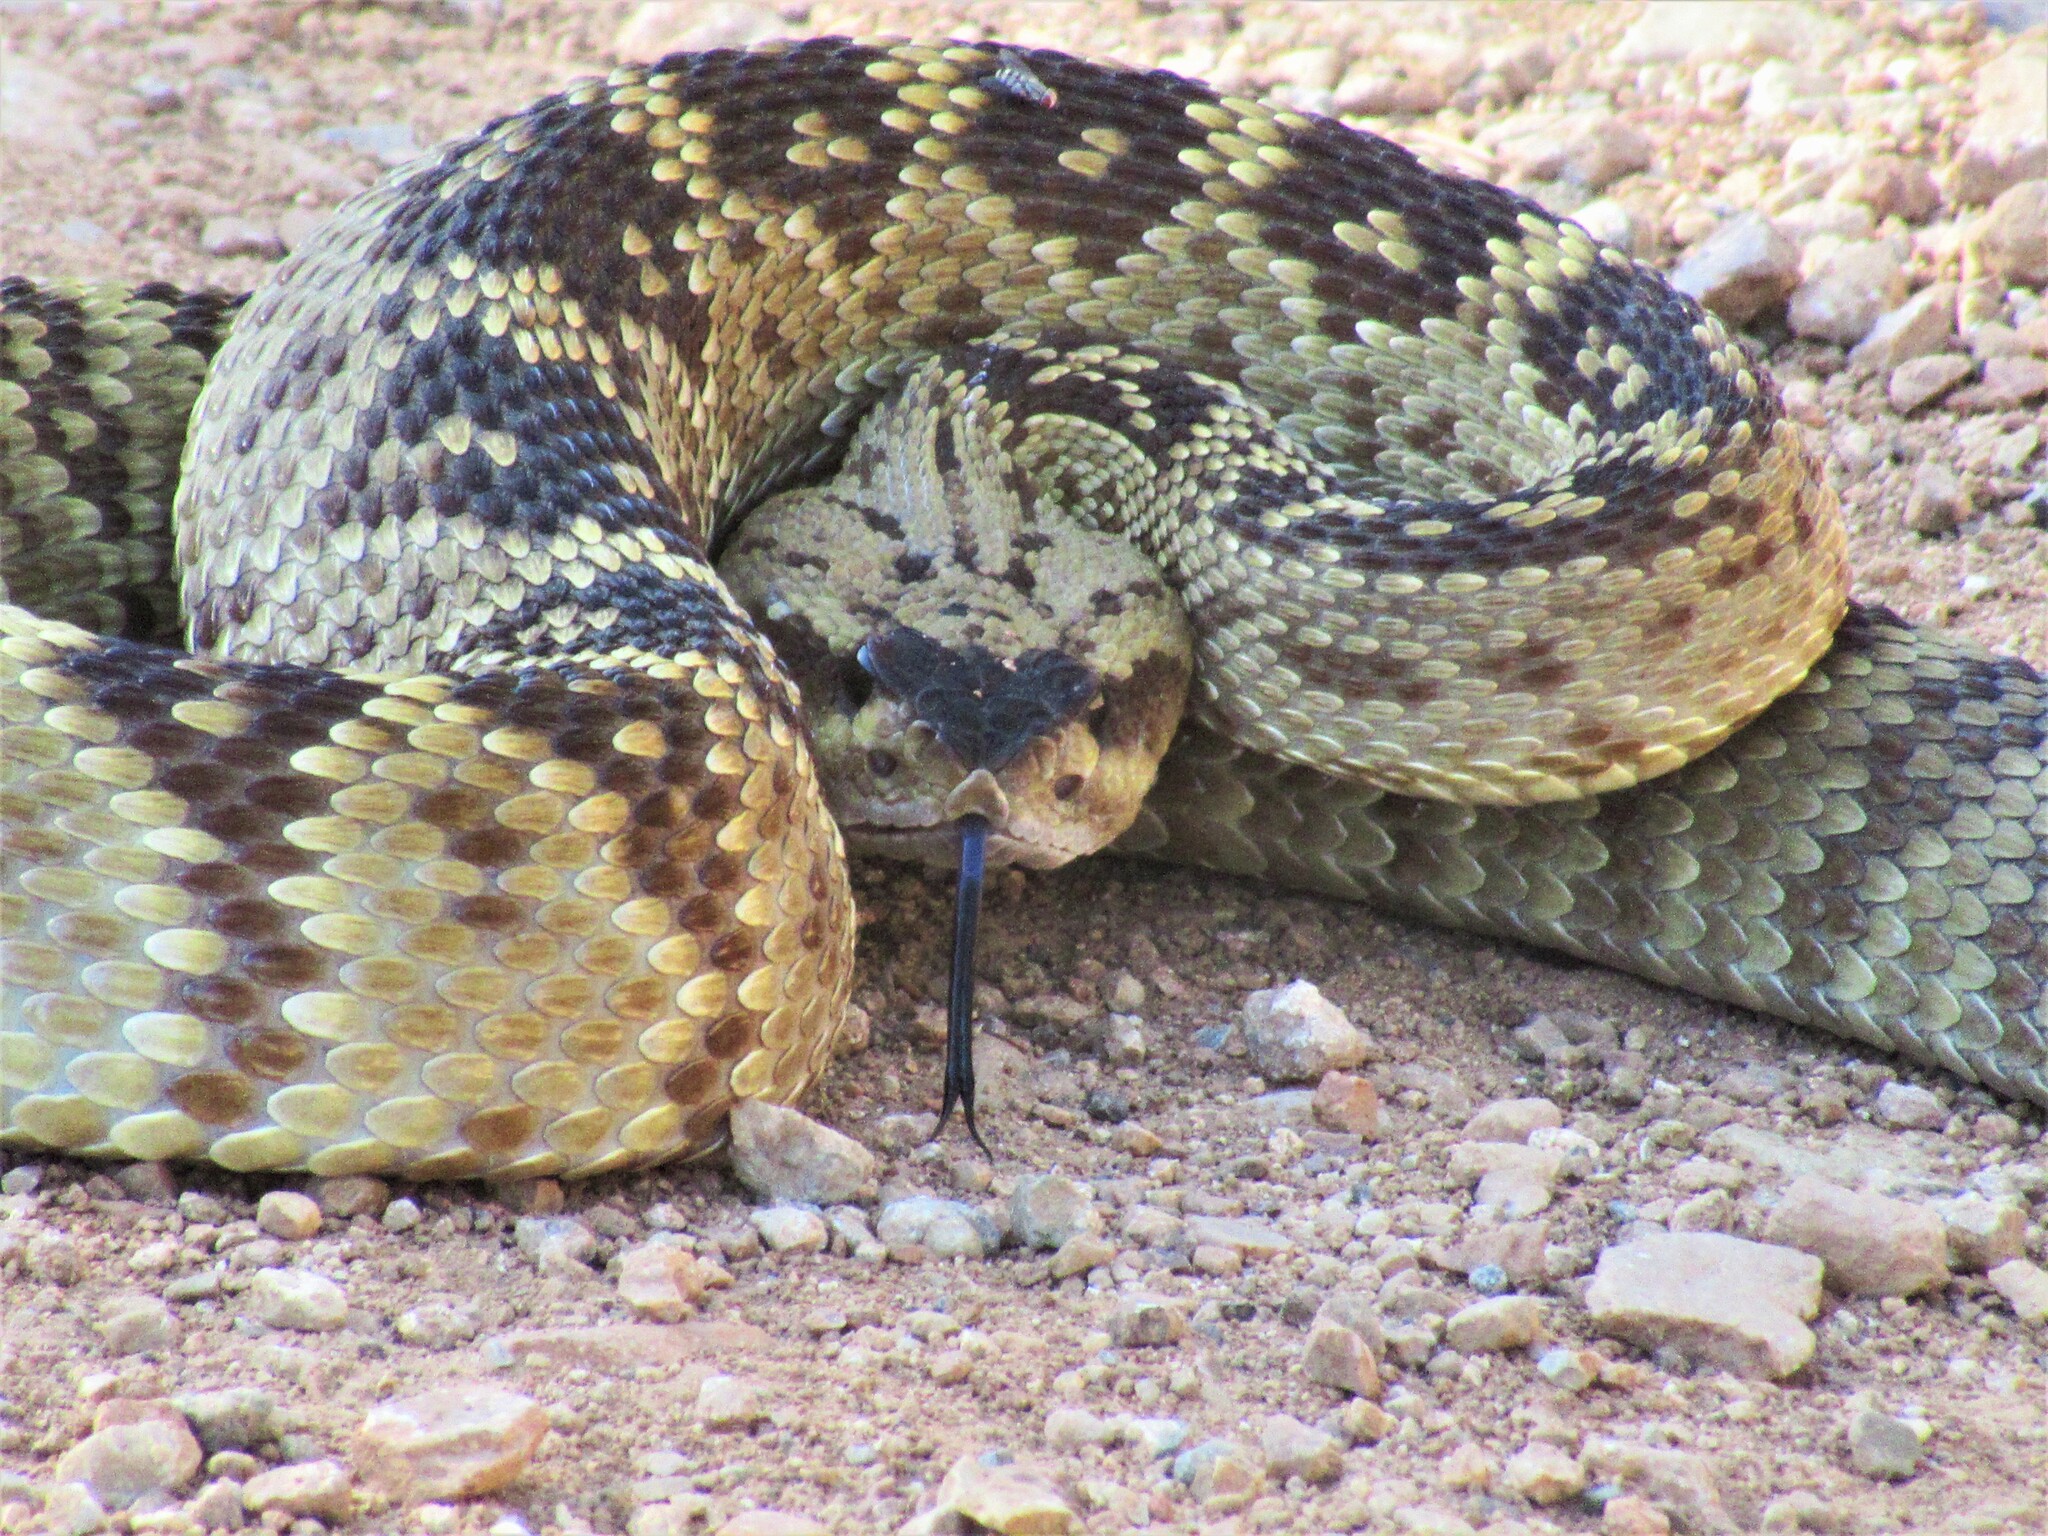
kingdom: Animalia
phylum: Chordata
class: Squamata
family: Viperidae
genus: Crotalus
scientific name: Crotalus molossus
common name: Black tailed rattlesnake
